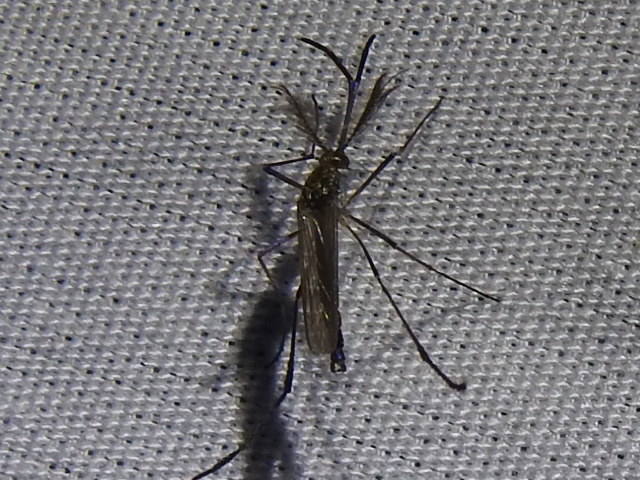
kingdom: Animalia
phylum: Arthropoda
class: Insecta
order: Diptera
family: Culicidae
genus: Psorophora
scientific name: Psorophora ferox
